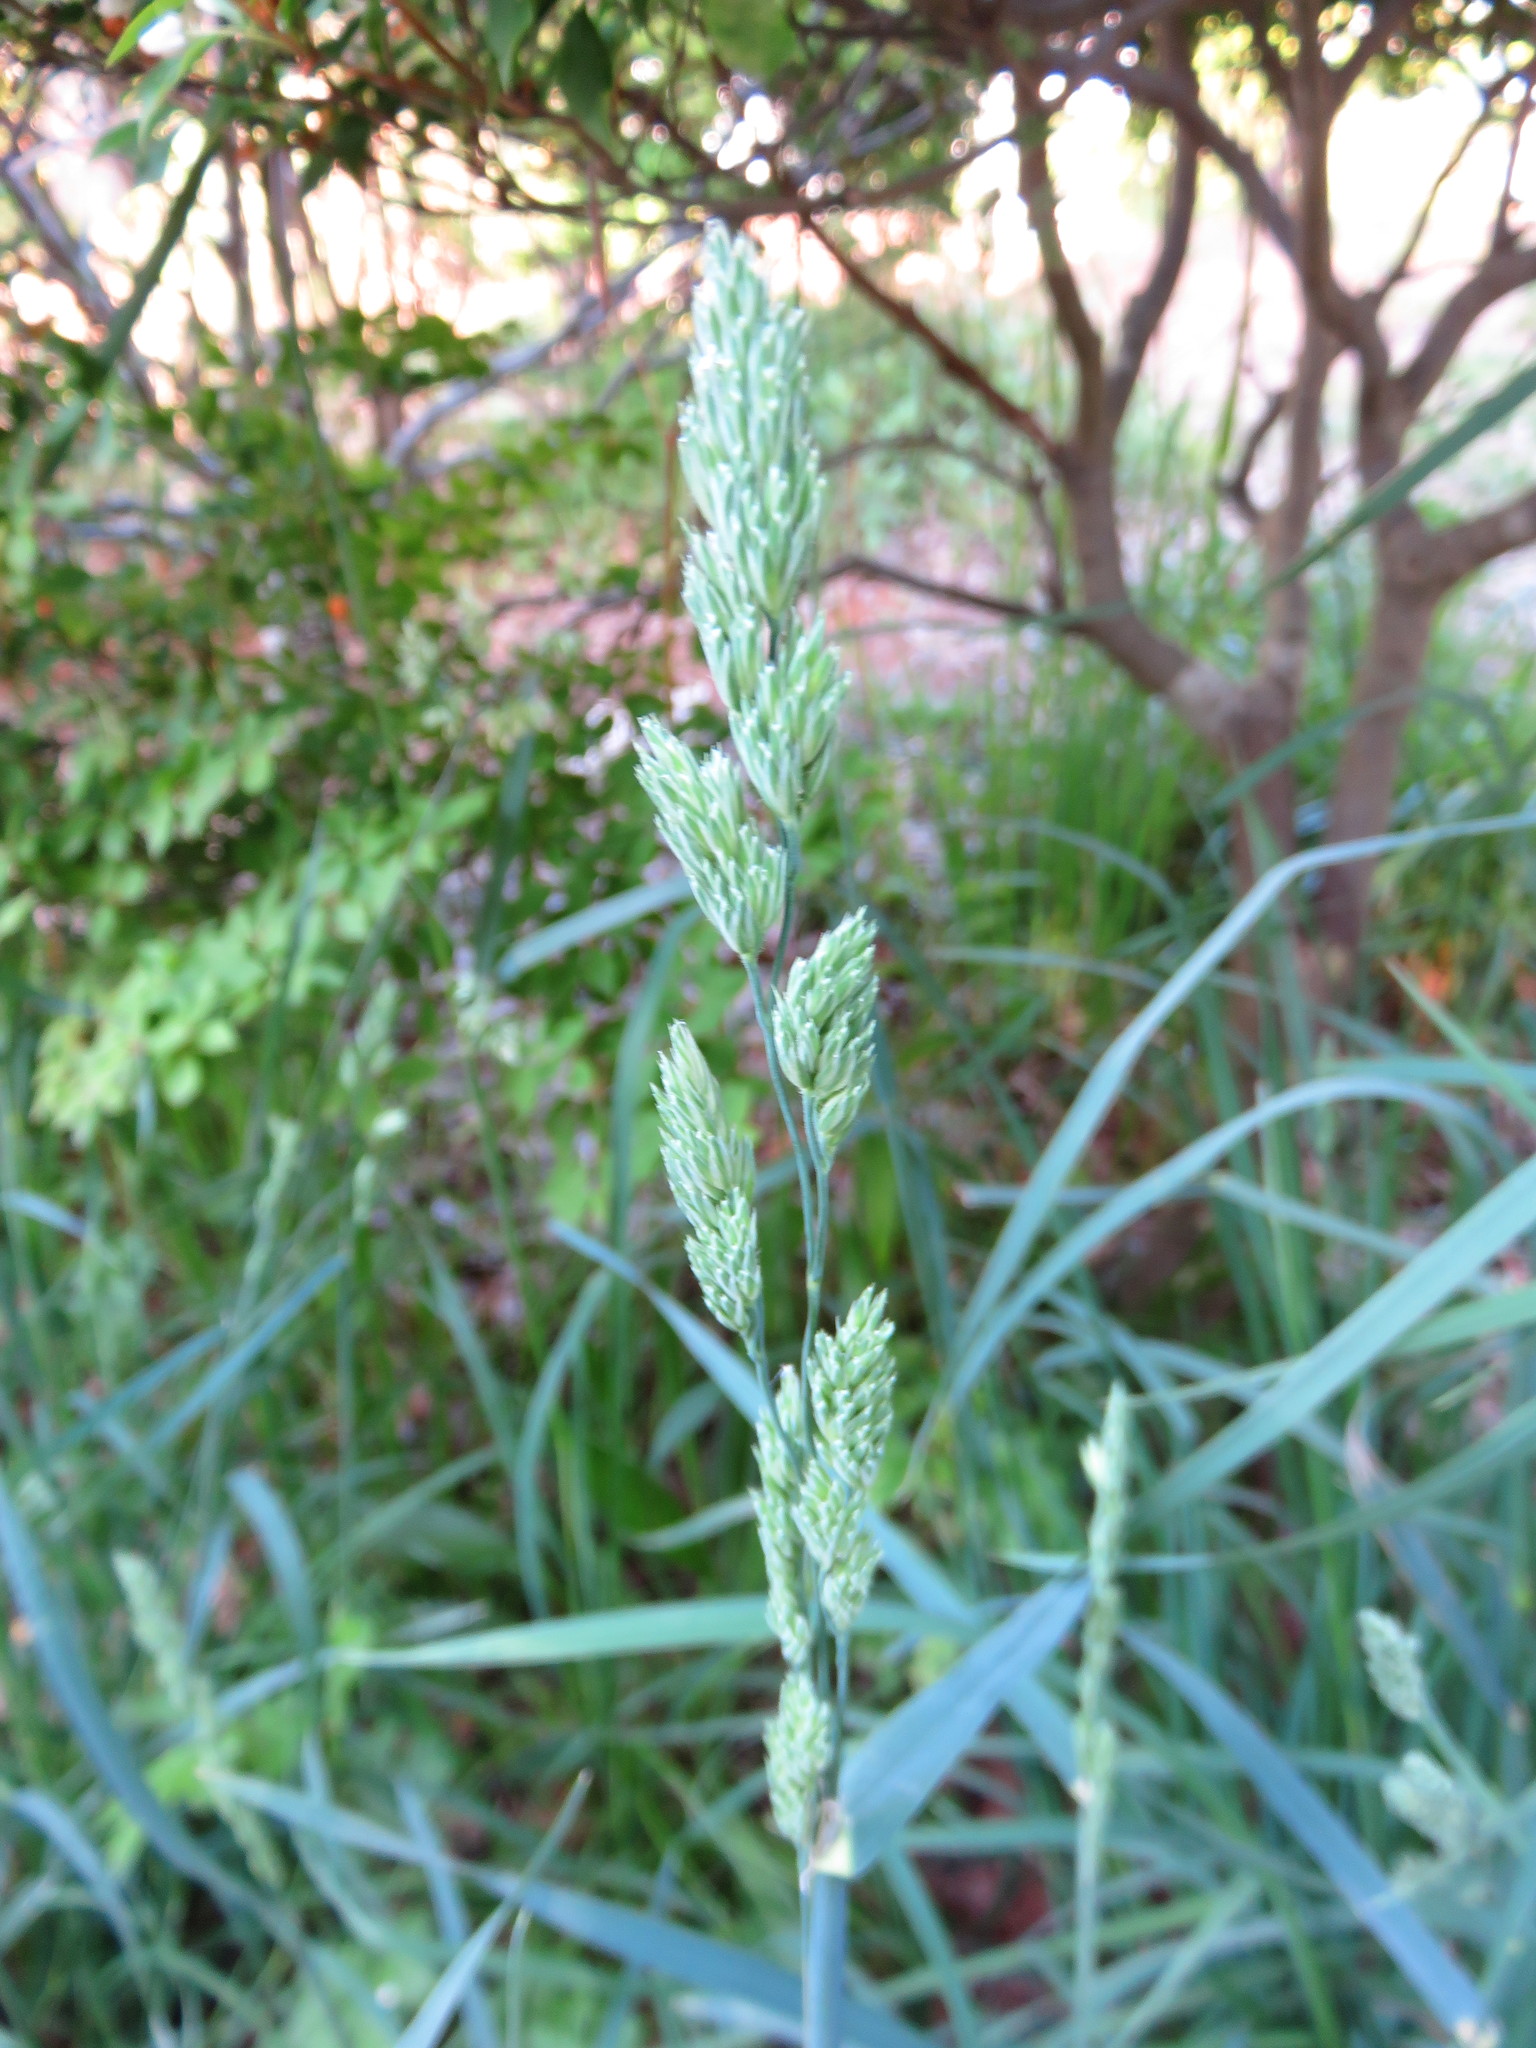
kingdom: Plantae
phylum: Tracheophyta
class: Liliopsida
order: Poales
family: Poaceae
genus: Dactylis
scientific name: Dactylis glomerata
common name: Orchardgrass
